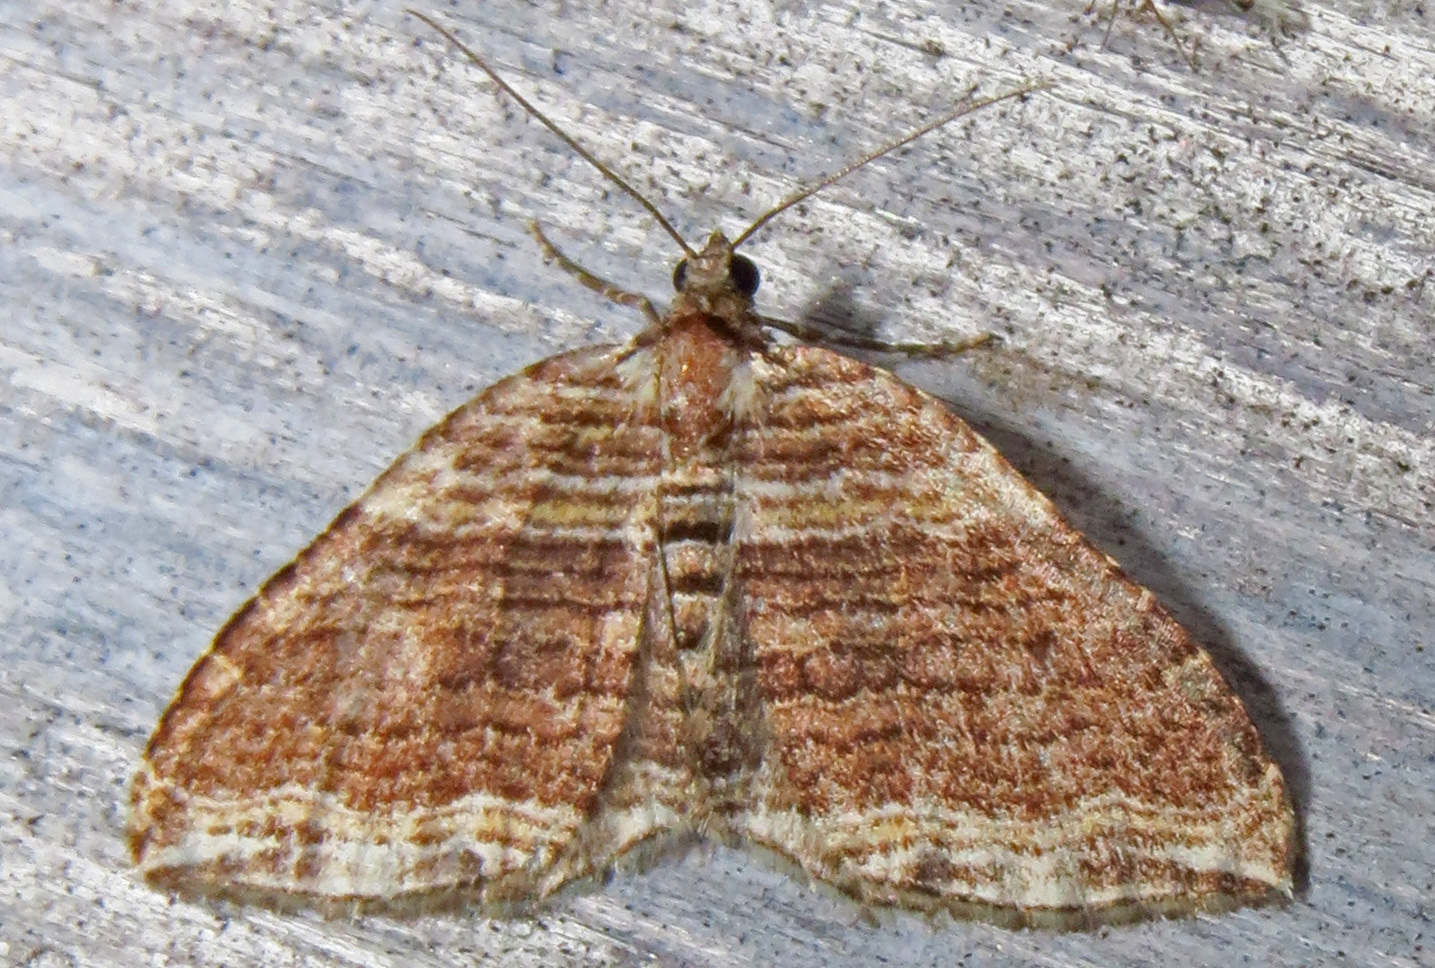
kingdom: Animalia
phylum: Arthropoda
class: Insecta
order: Lepidoptera
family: Geometridae
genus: Anticlea
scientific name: Anticlea multiferata
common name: Many-lined carpet
